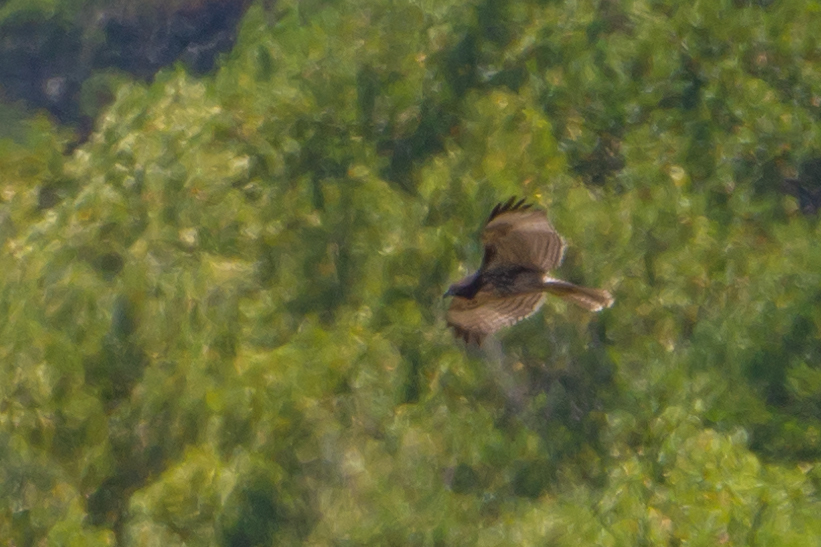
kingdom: Animalia
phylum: Chordata
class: Aves
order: Accipitriformes
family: Accipitridae
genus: Buteo
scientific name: Buteo jamaicensis
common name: Red-tailed hawk
